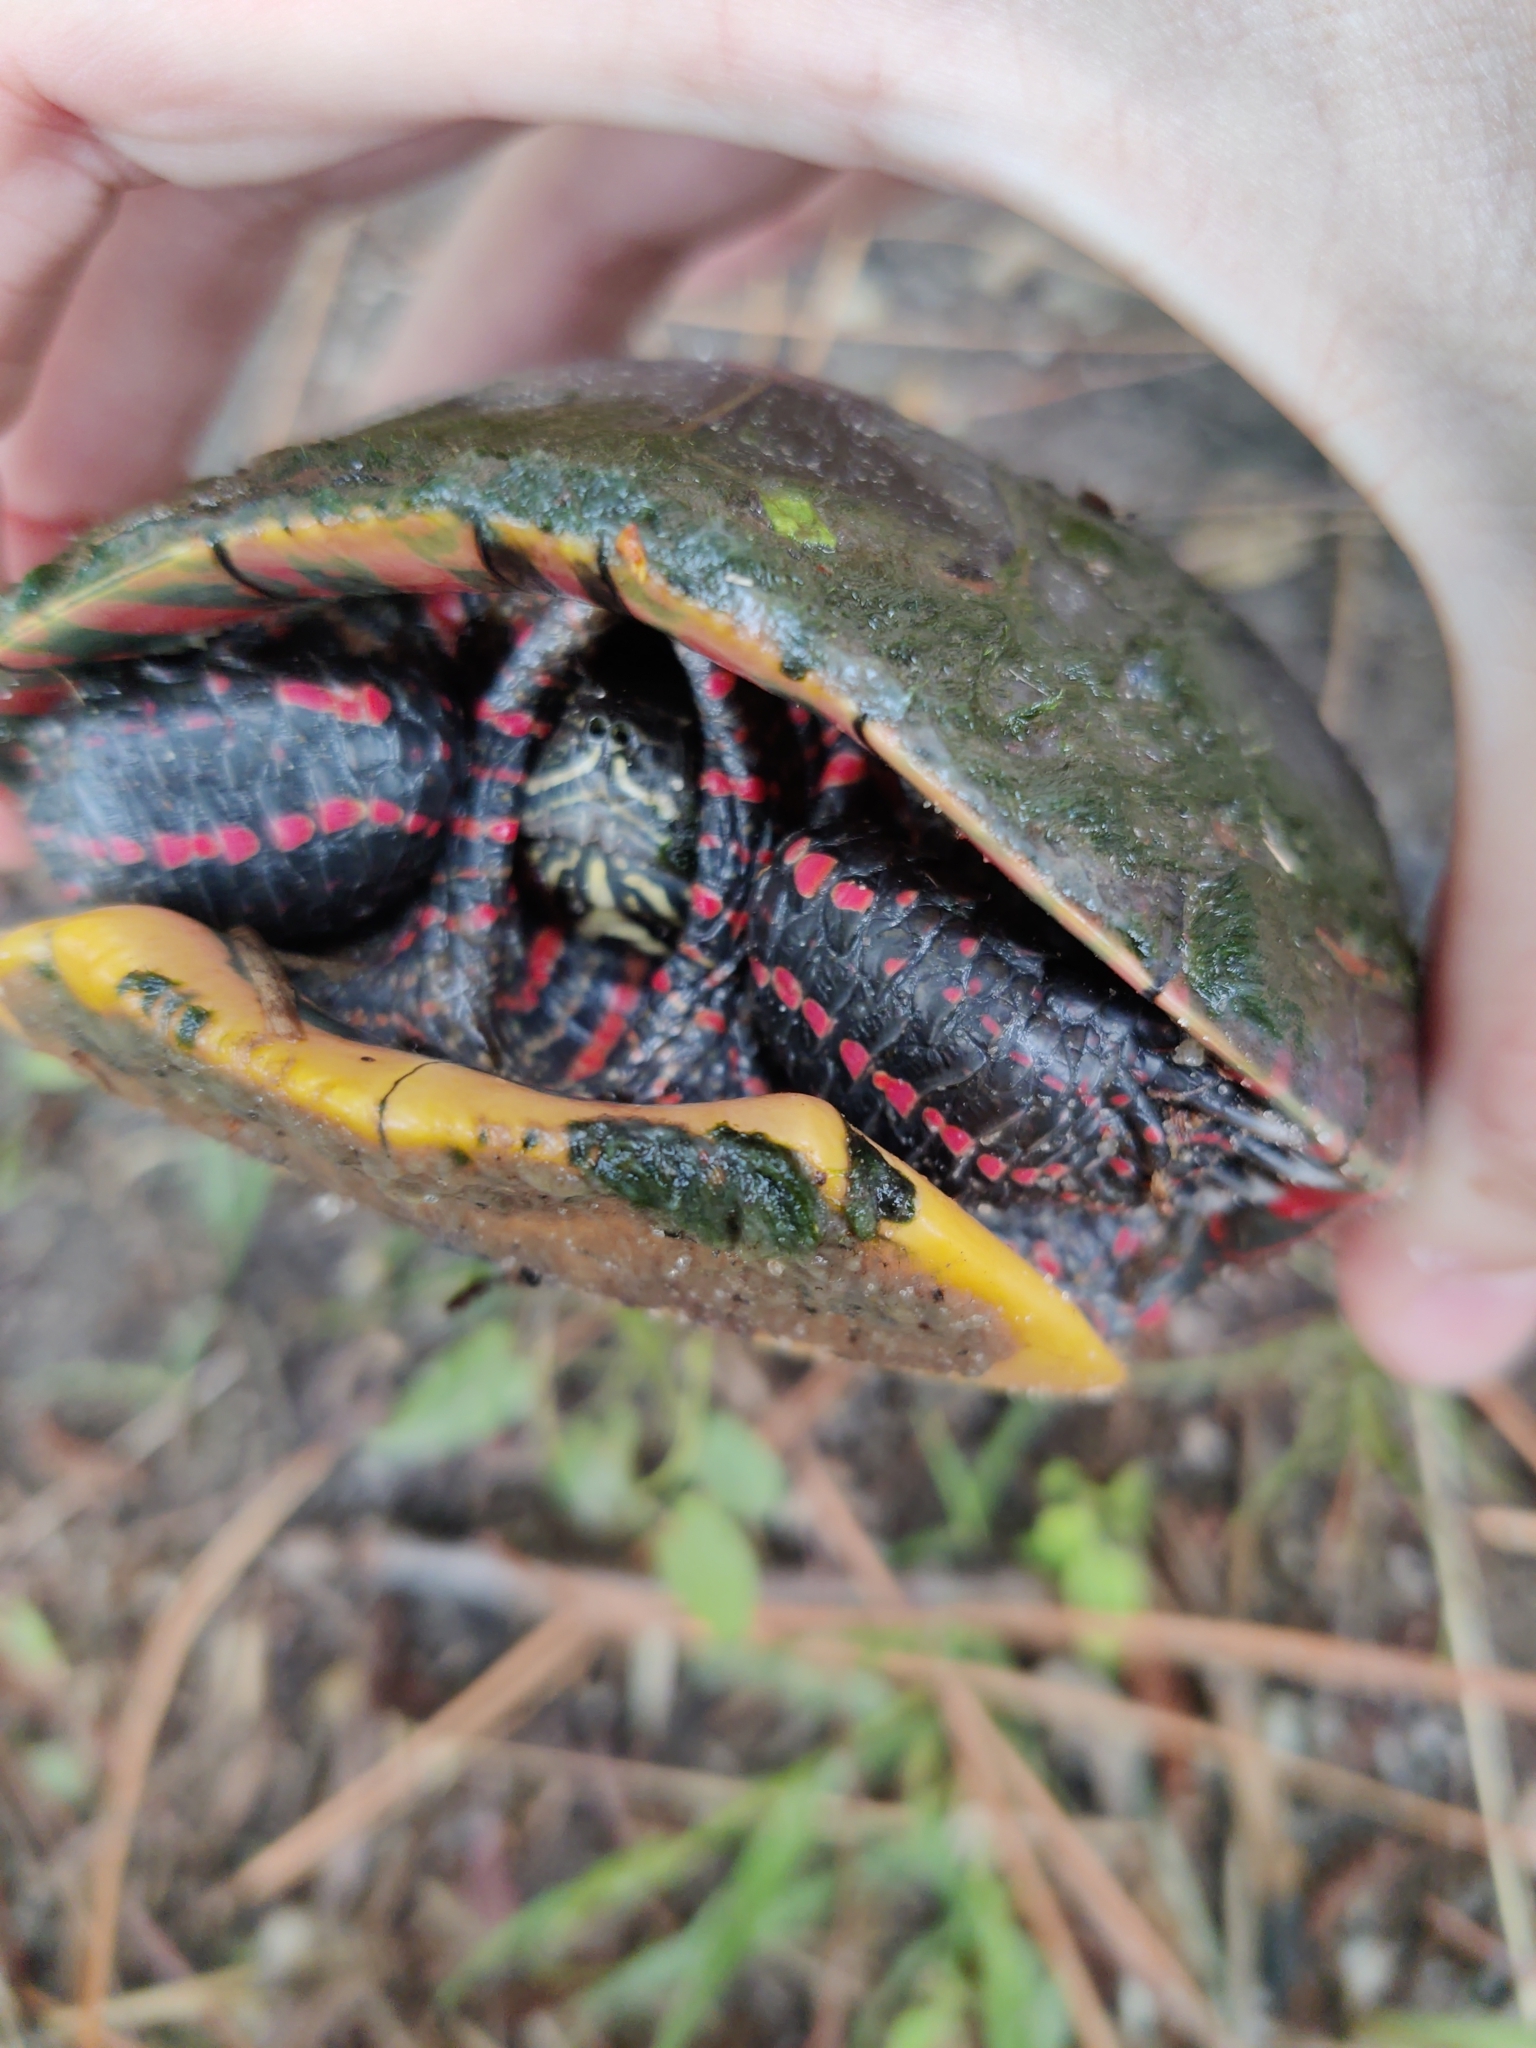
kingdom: Animalia
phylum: Chordata
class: Testudines
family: Emydidae
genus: Chrysemys
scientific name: Chrysemys picta
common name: Painted turtle
